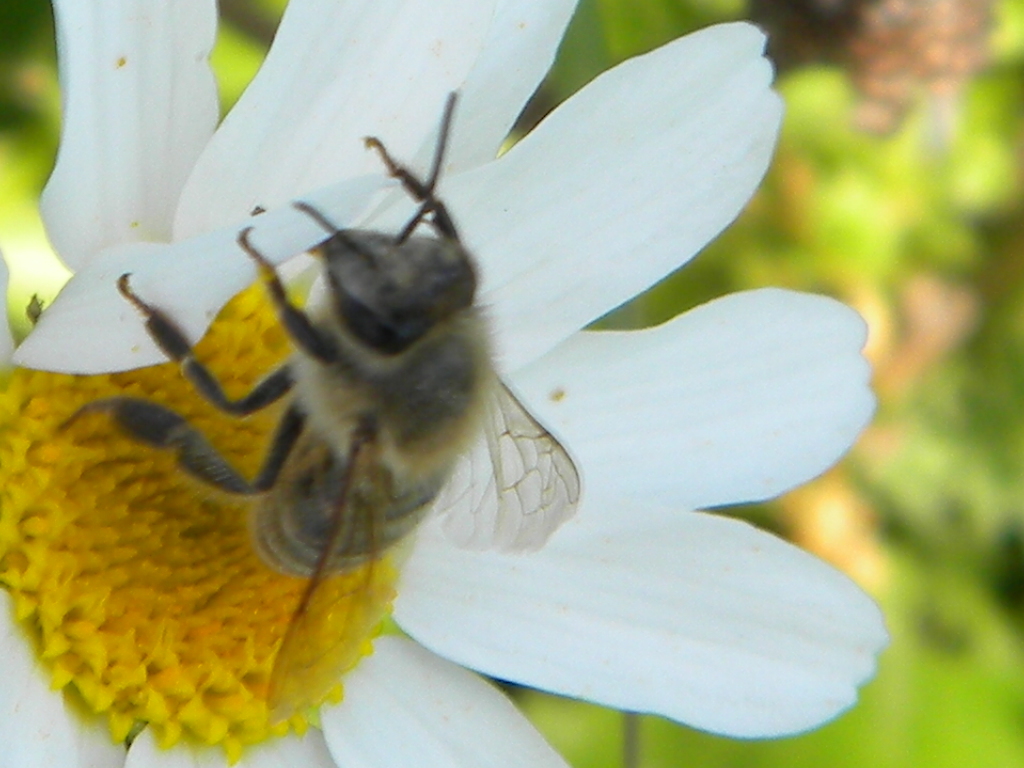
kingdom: Animalia
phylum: Arthropoda
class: Insecta
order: Hymenoptera
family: Apidae
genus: Apis
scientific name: Apis mellifera
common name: Honey bee
